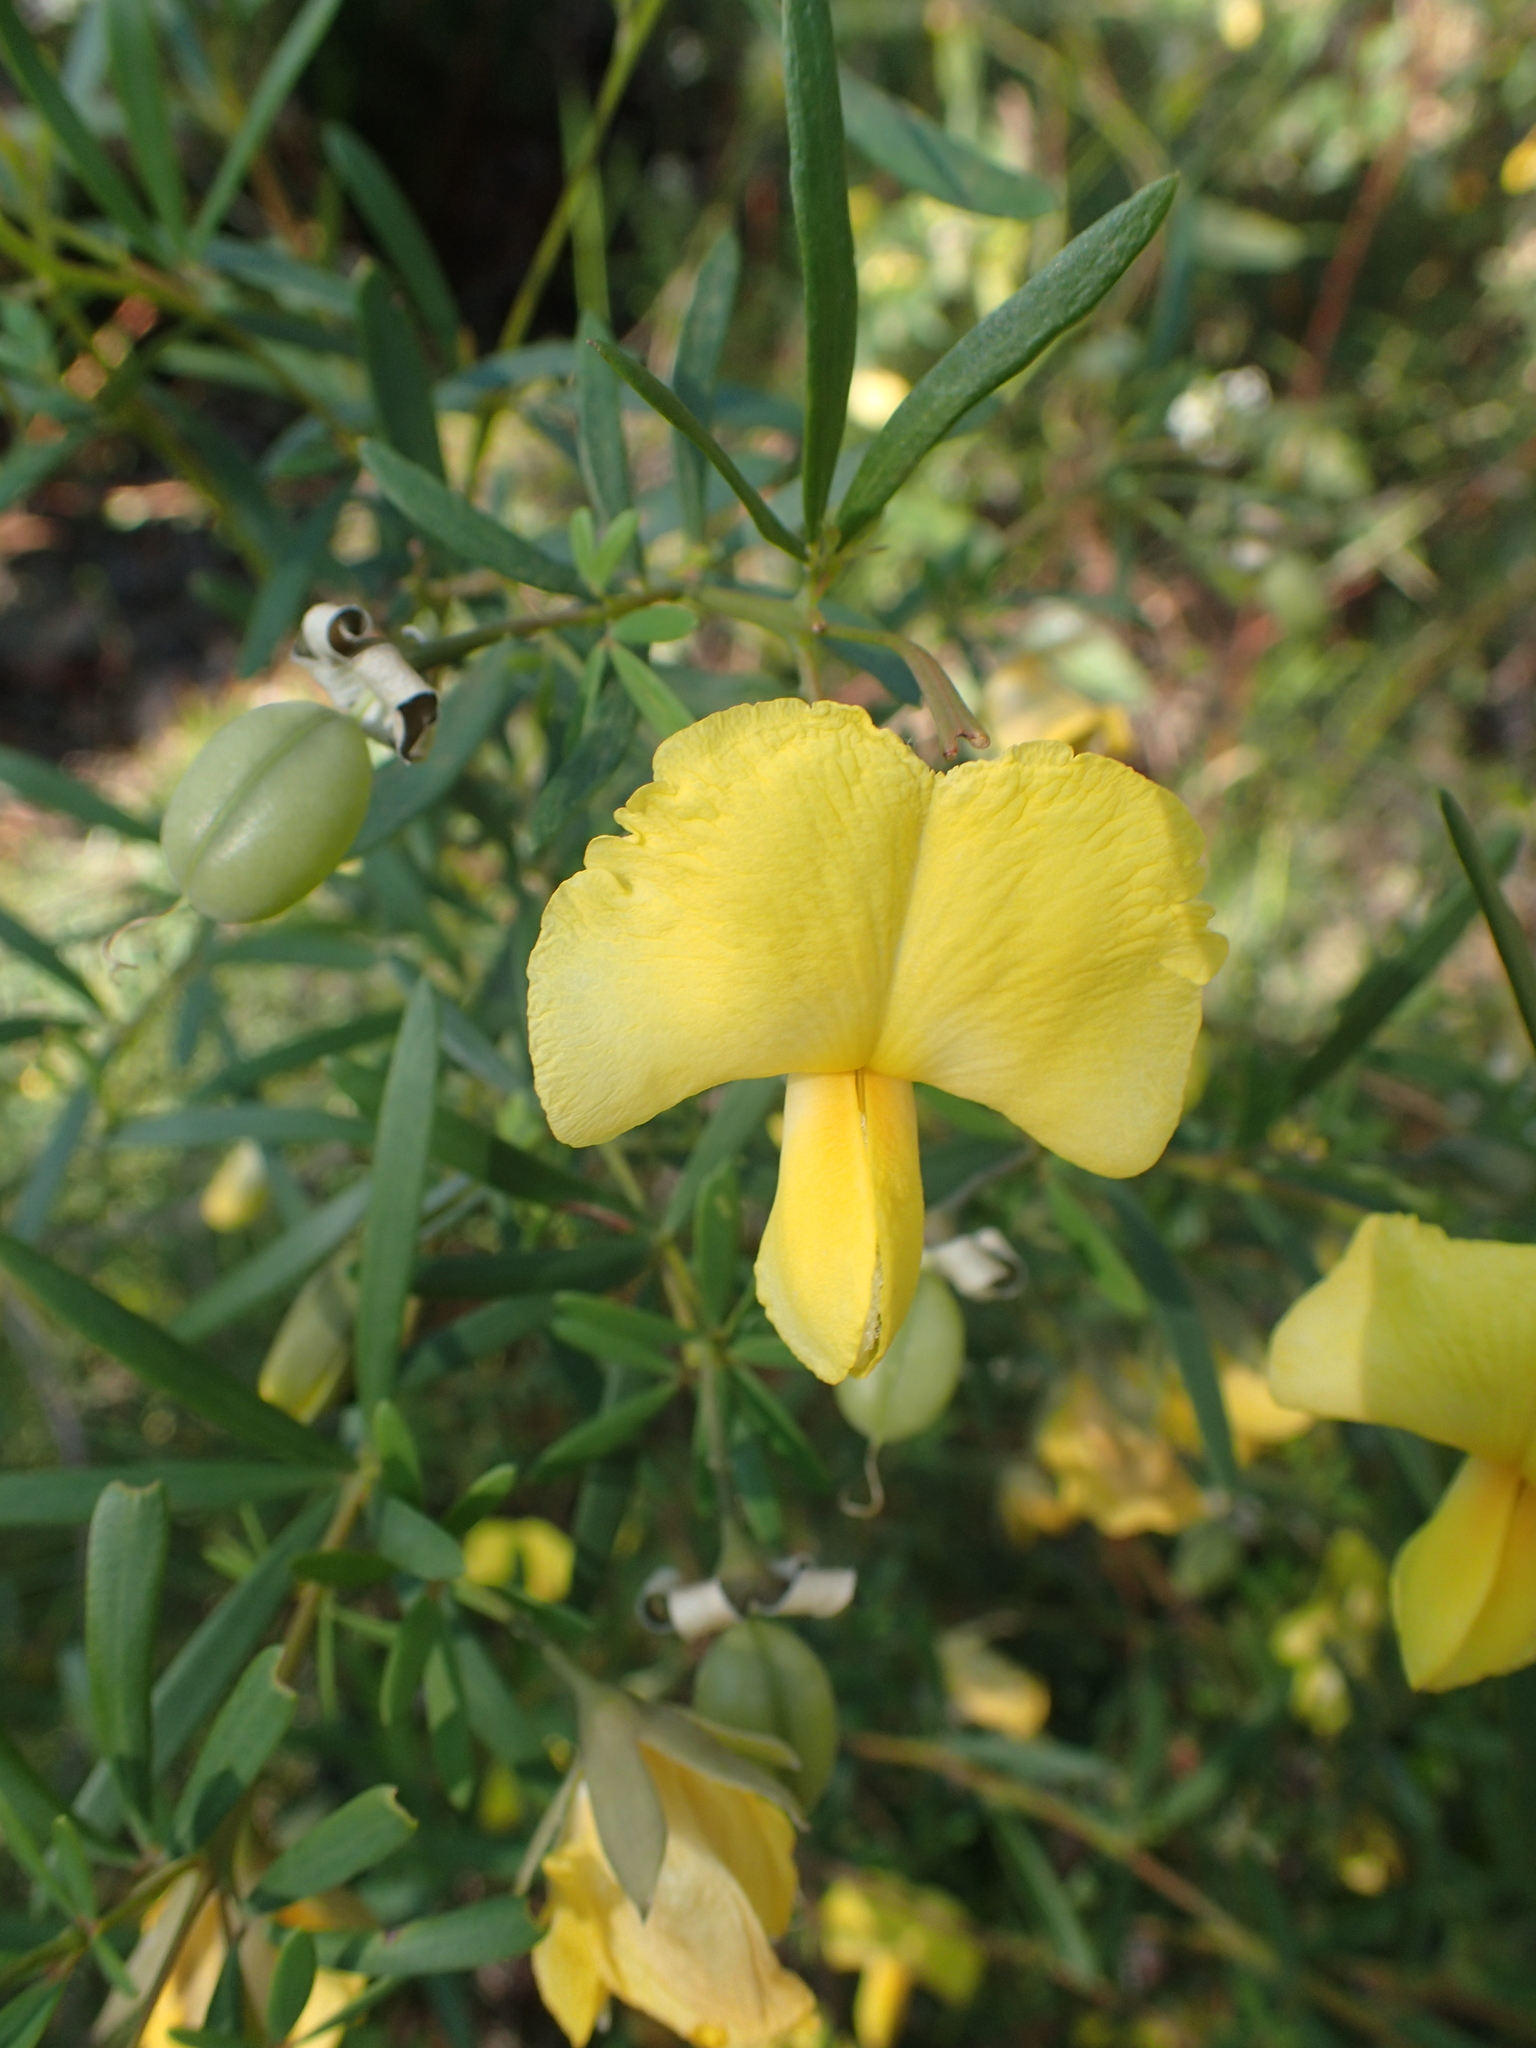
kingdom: Plantae
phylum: Tracheophyta
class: Magnoliopsida
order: Fabales
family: Fabaceae
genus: Gompholobium
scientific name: Gompholobium latifolium
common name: Broadleaf wedge-pea
